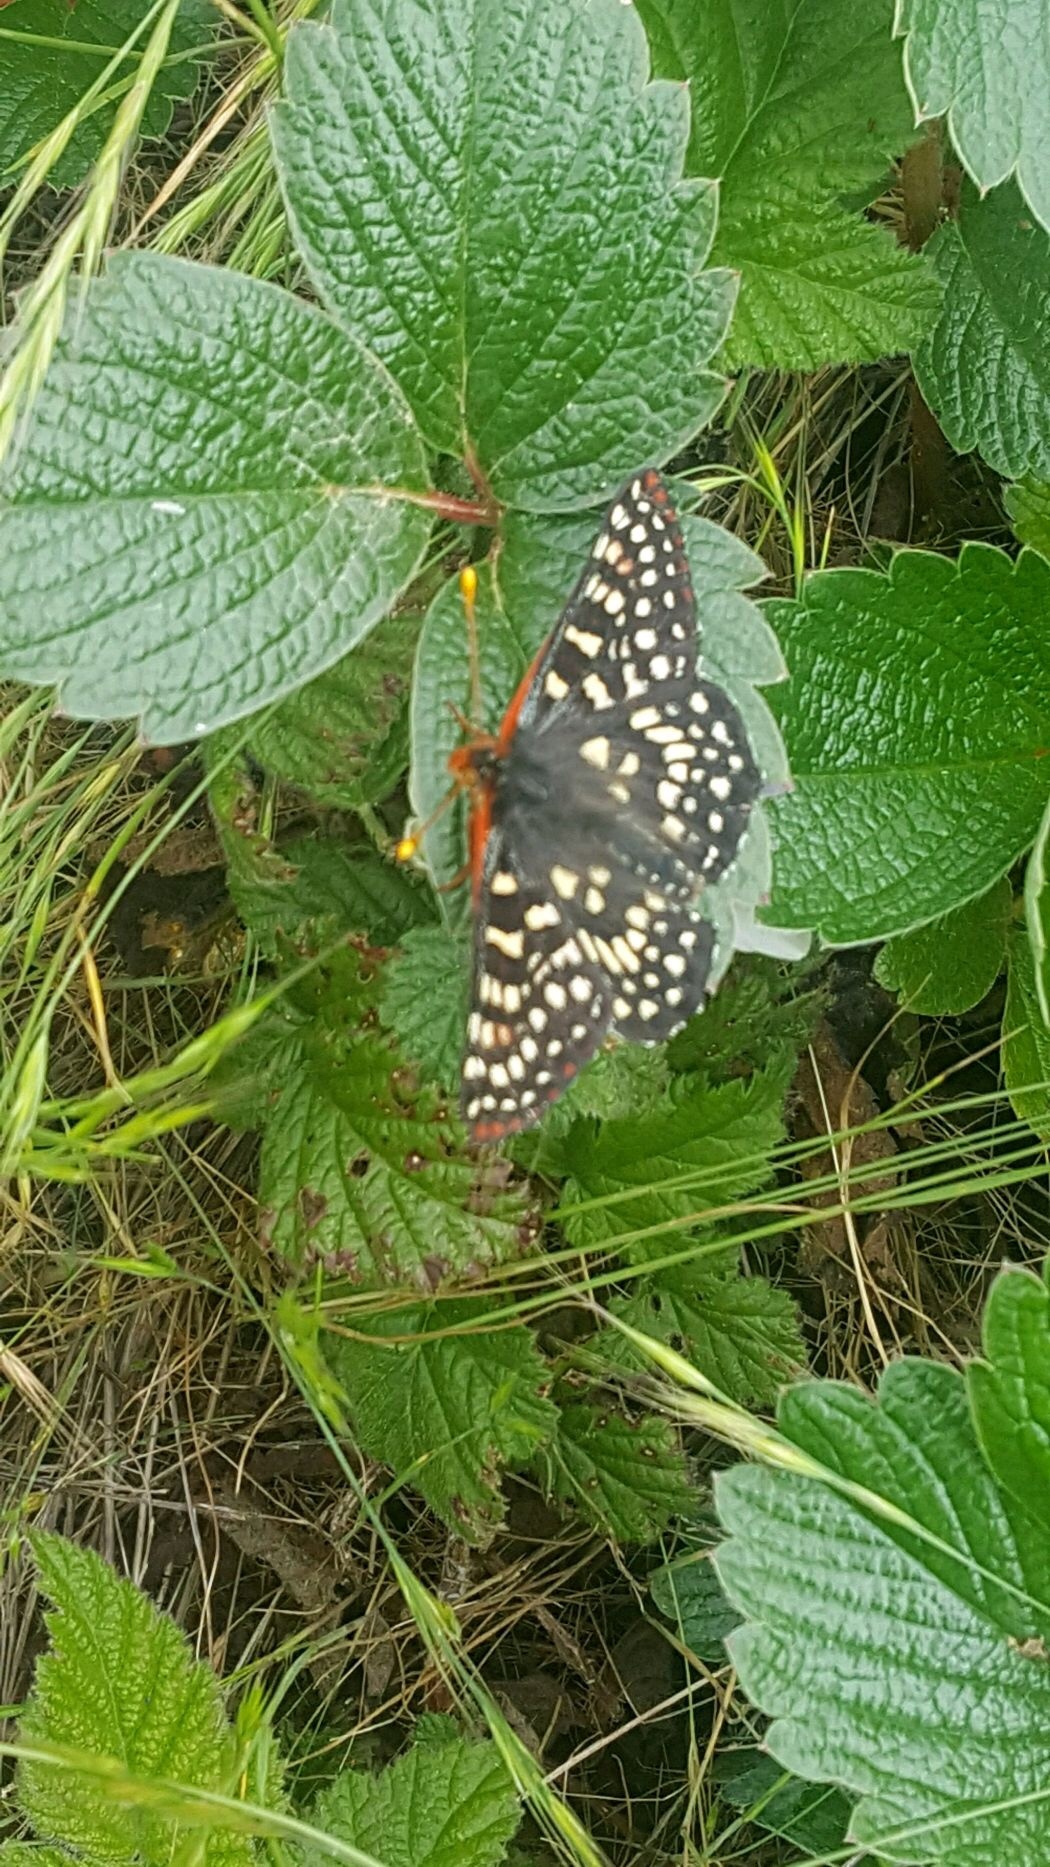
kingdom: Animalia
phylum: Arthropoda
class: Insecta
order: Lepidoptera
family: Nymphalidae
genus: Occidryas
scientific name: Occidryas chalcedona
